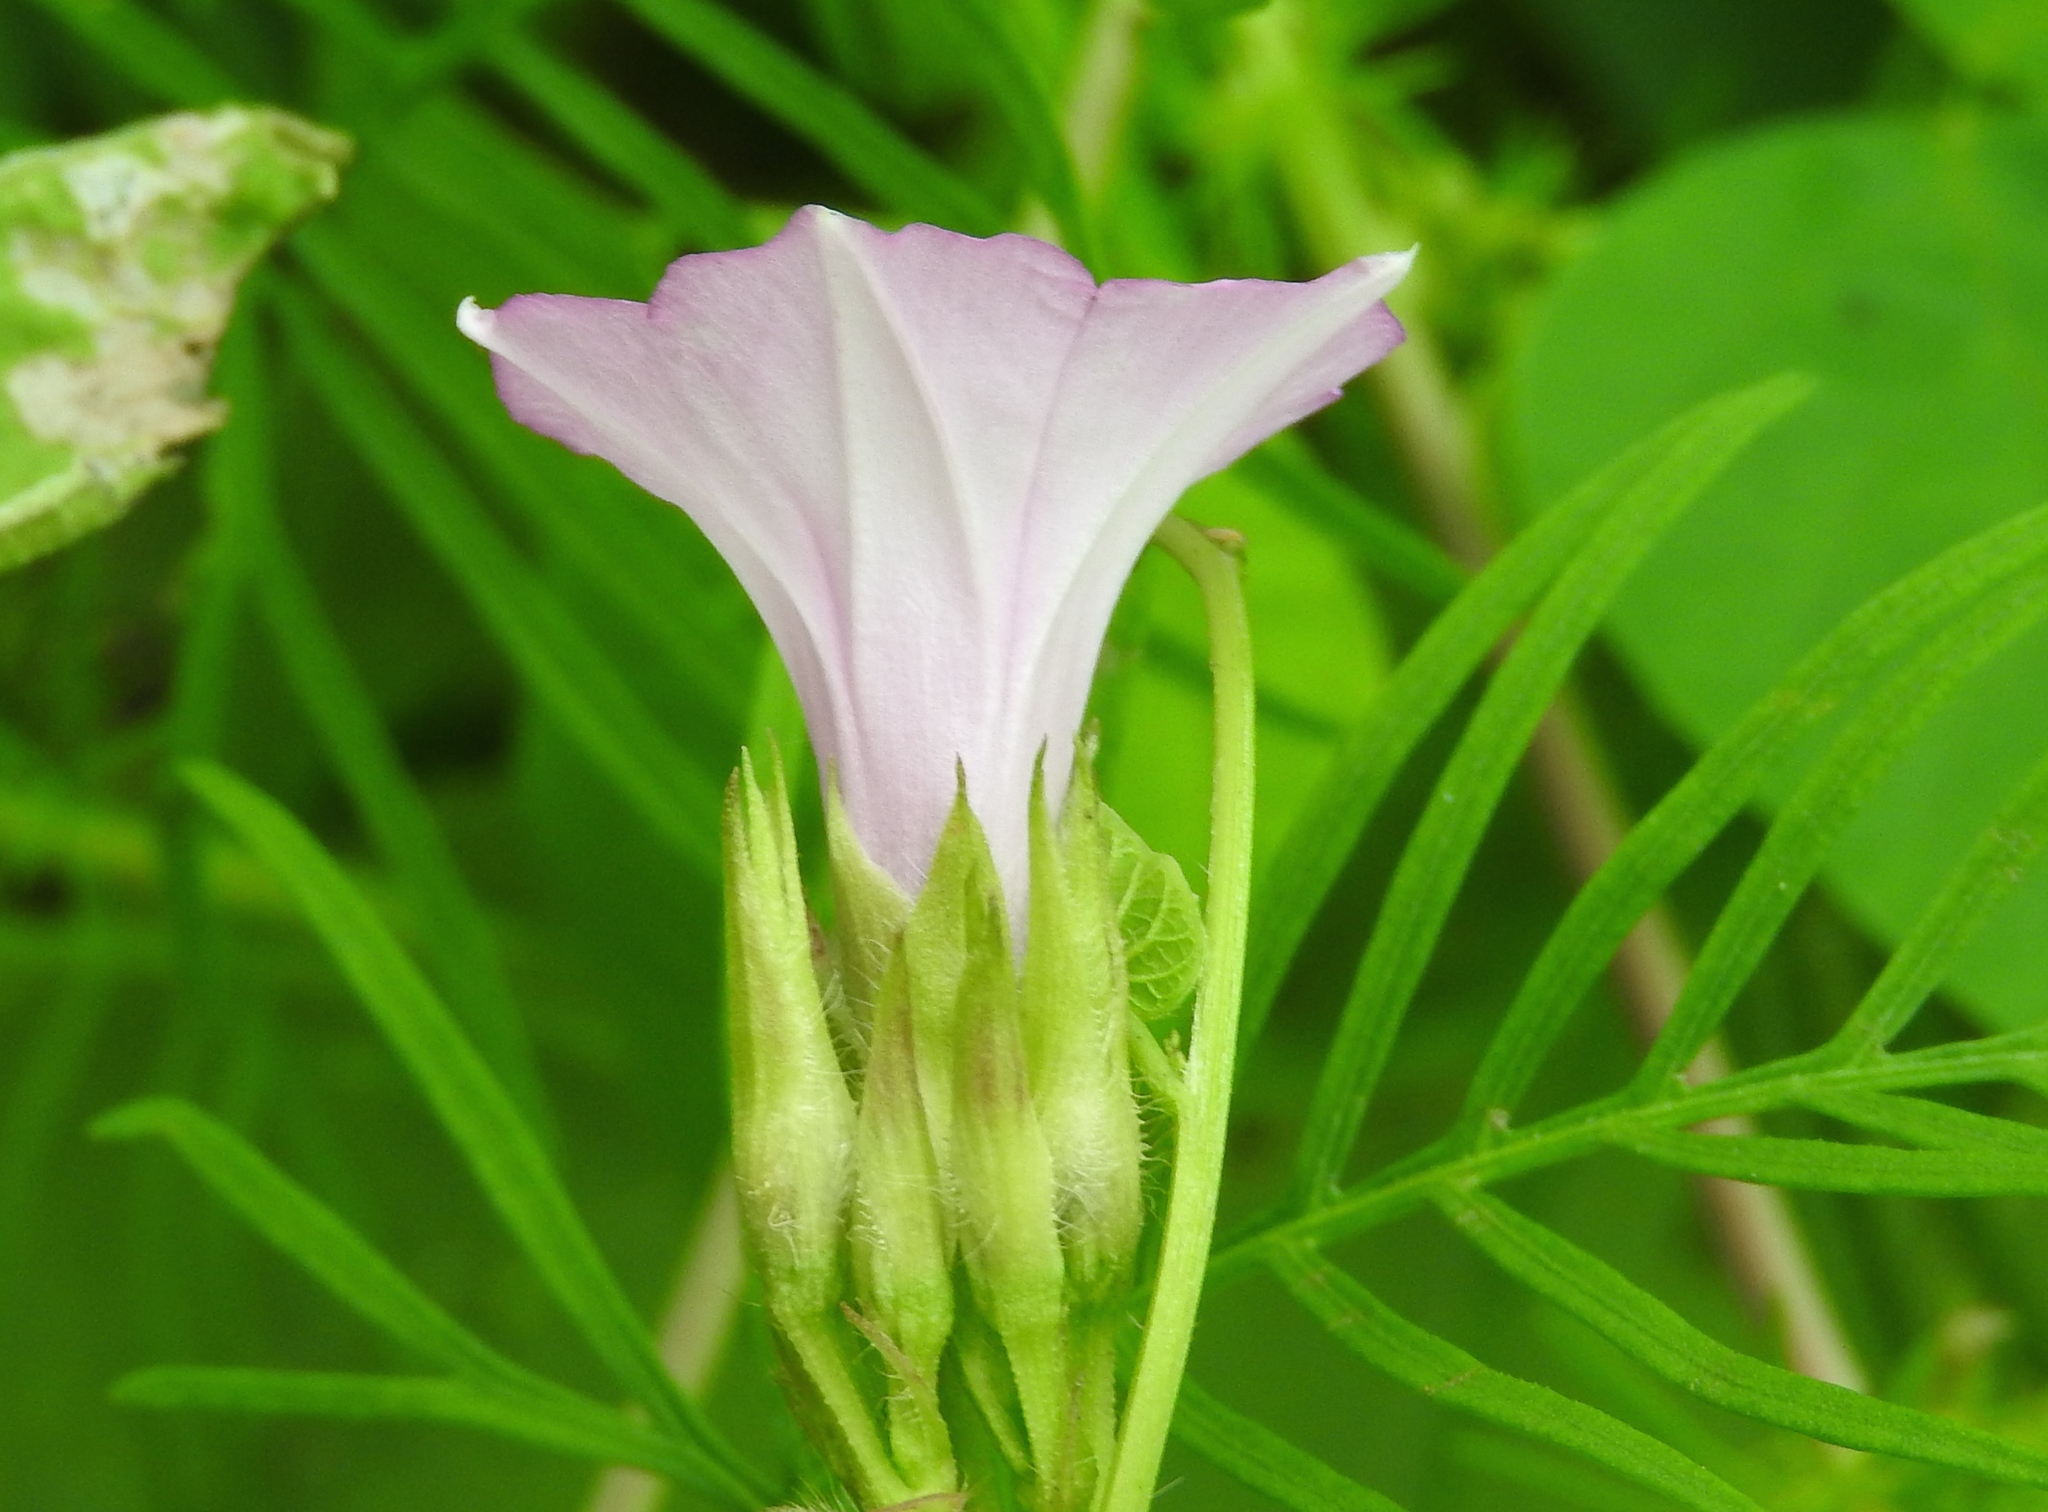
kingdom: Plantae
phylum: Tracheophyta
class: Magnoliopsida
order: Solanales
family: Convolvulaceae
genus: Ipomoea
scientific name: Ipomoea triloba
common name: Little-bell
